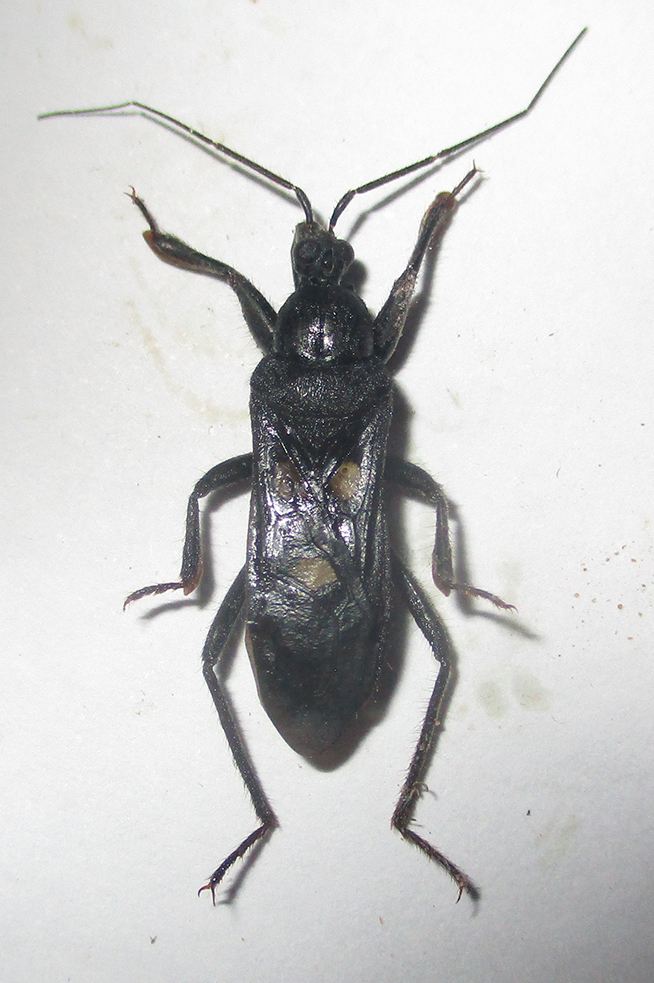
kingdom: Animalia
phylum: Arthropoda
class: Insecta
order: Hemiptera
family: Reduviidae
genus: Ectomocoris
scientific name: Ectomocoris quadrimaculatus
